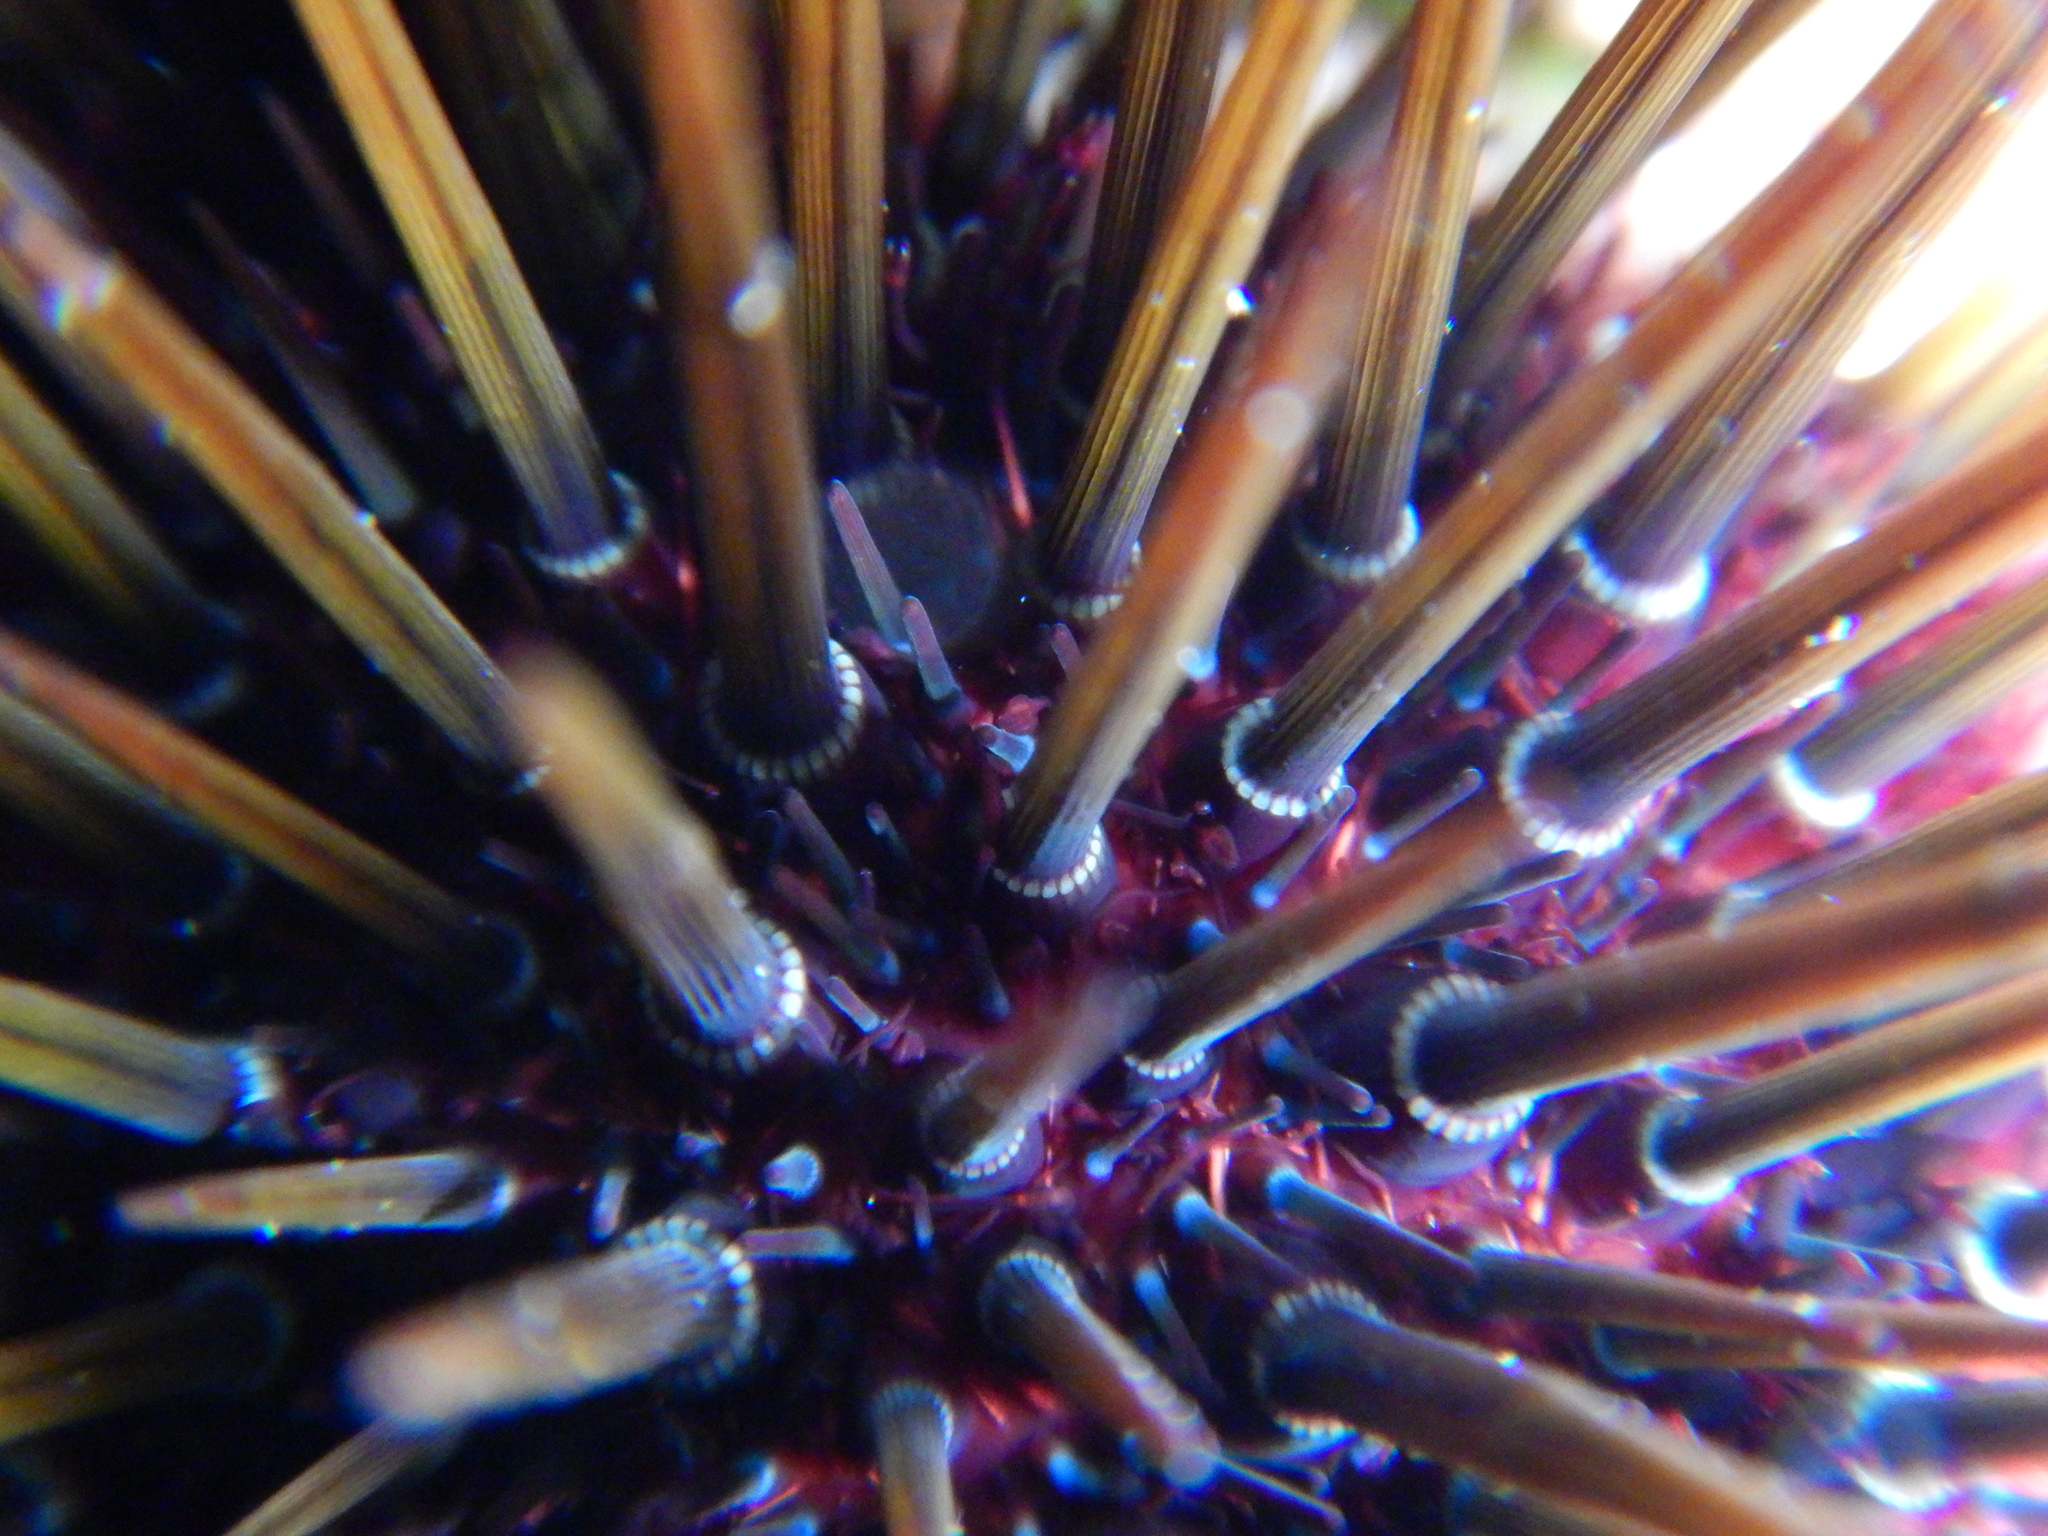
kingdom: Animalia
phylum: Echinodermata
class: Echinoidea
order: Camarodonta
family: Parechinidae
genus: Paracentrotus
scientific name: Paracentrotus lividus
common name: Purple sea urchin
